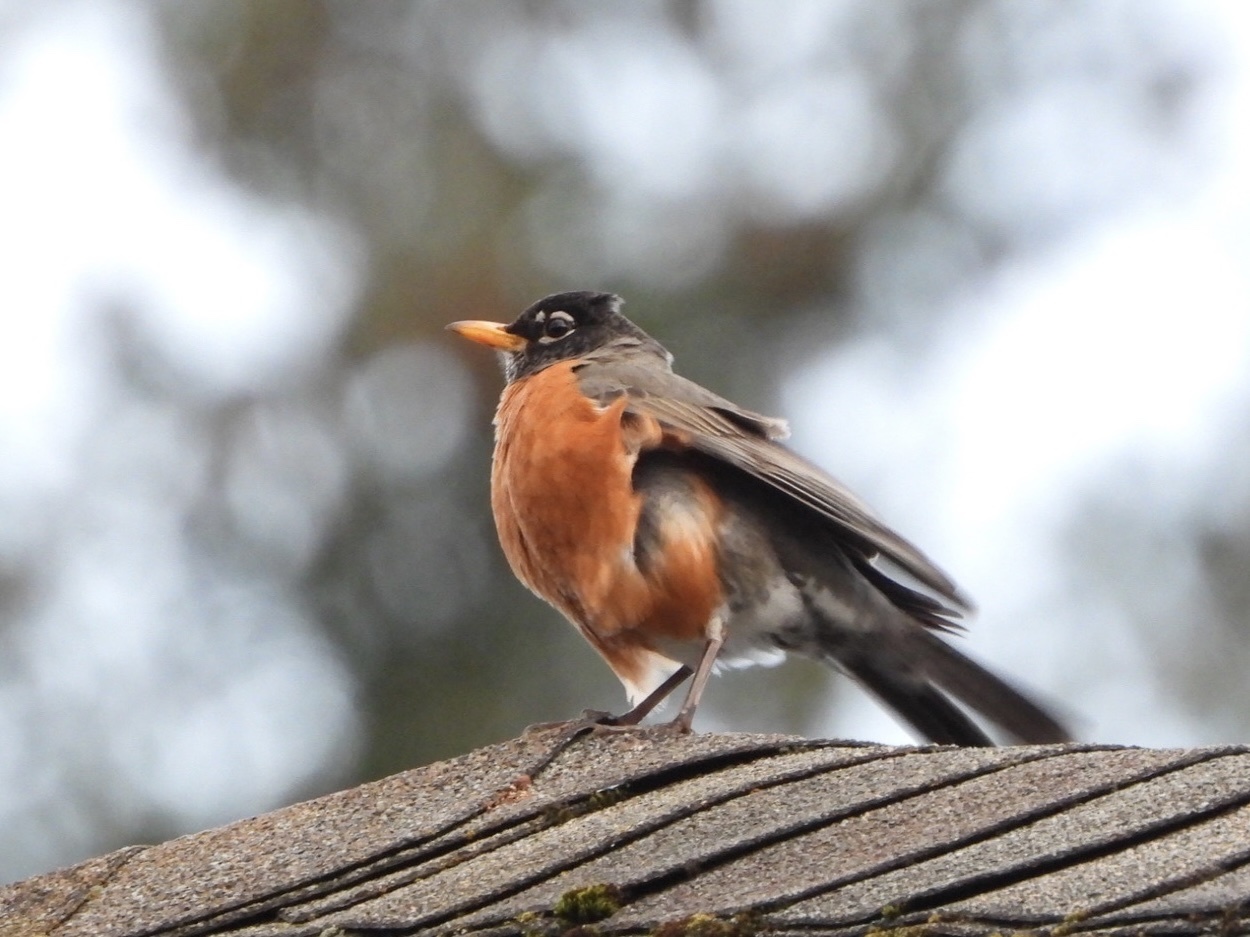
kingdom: Animalia
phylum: Chordata
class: Aves
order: Passeriformes
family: Turdidae
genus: Turdus
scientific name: Turdus migratorius
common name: American robin
